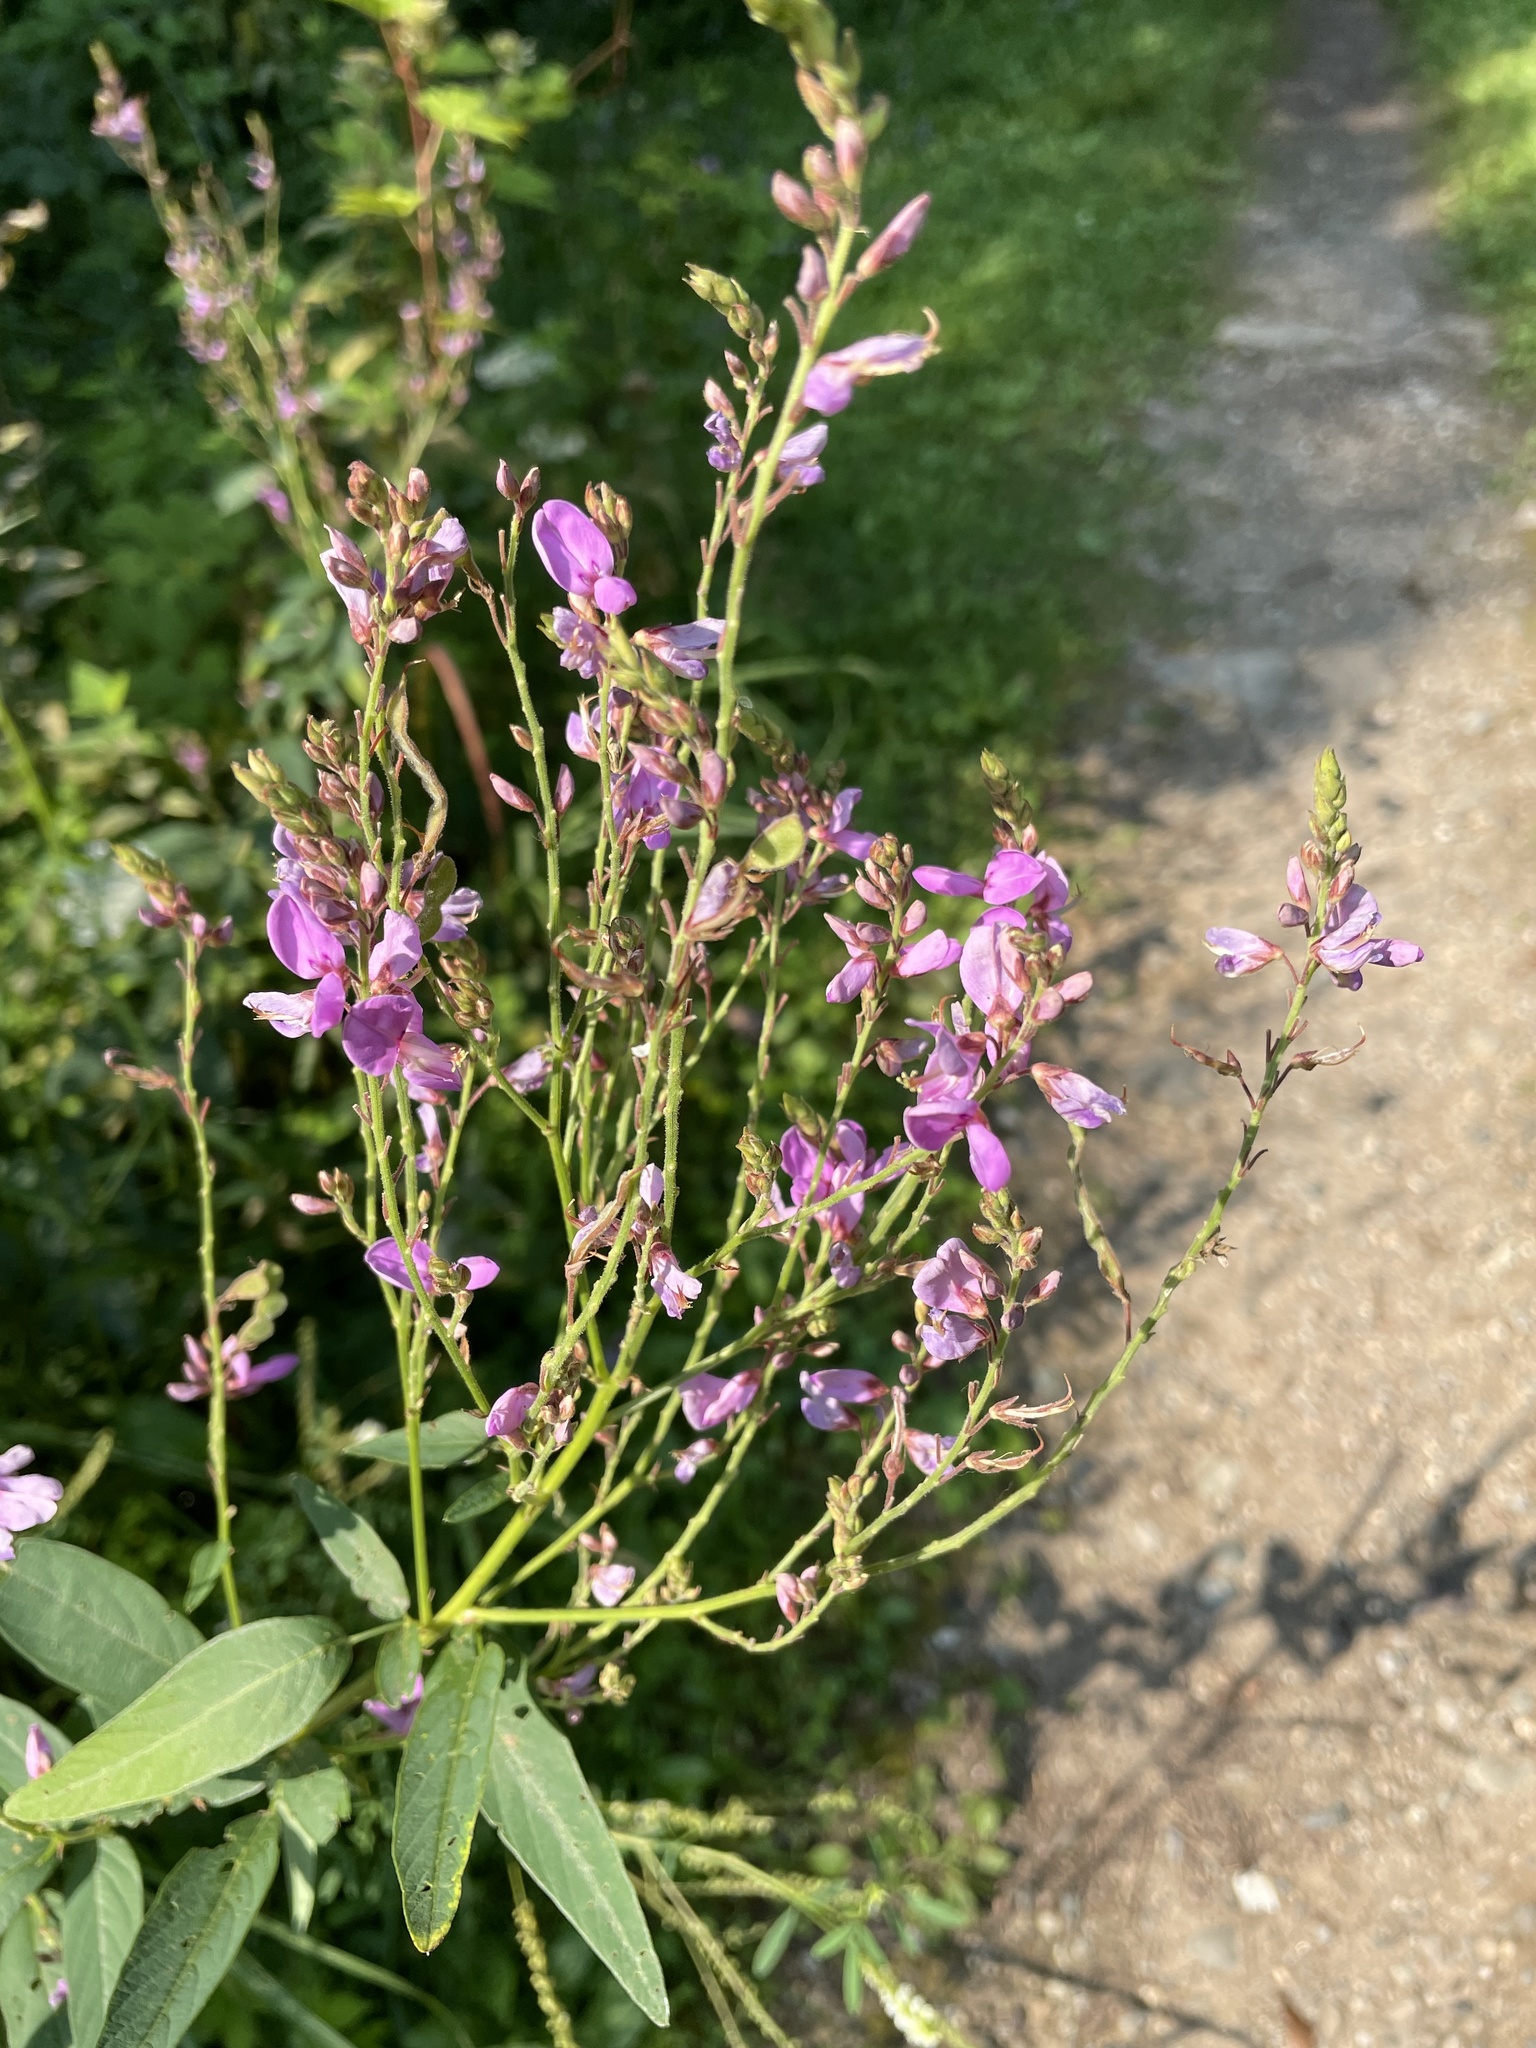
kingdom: Plantae
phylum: Tracheophyta
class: Magnoliopsida
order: Fabales
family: Fabaceae
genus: Desmodium
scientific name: Desmodium canadense
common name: Canada tick-trefoil
